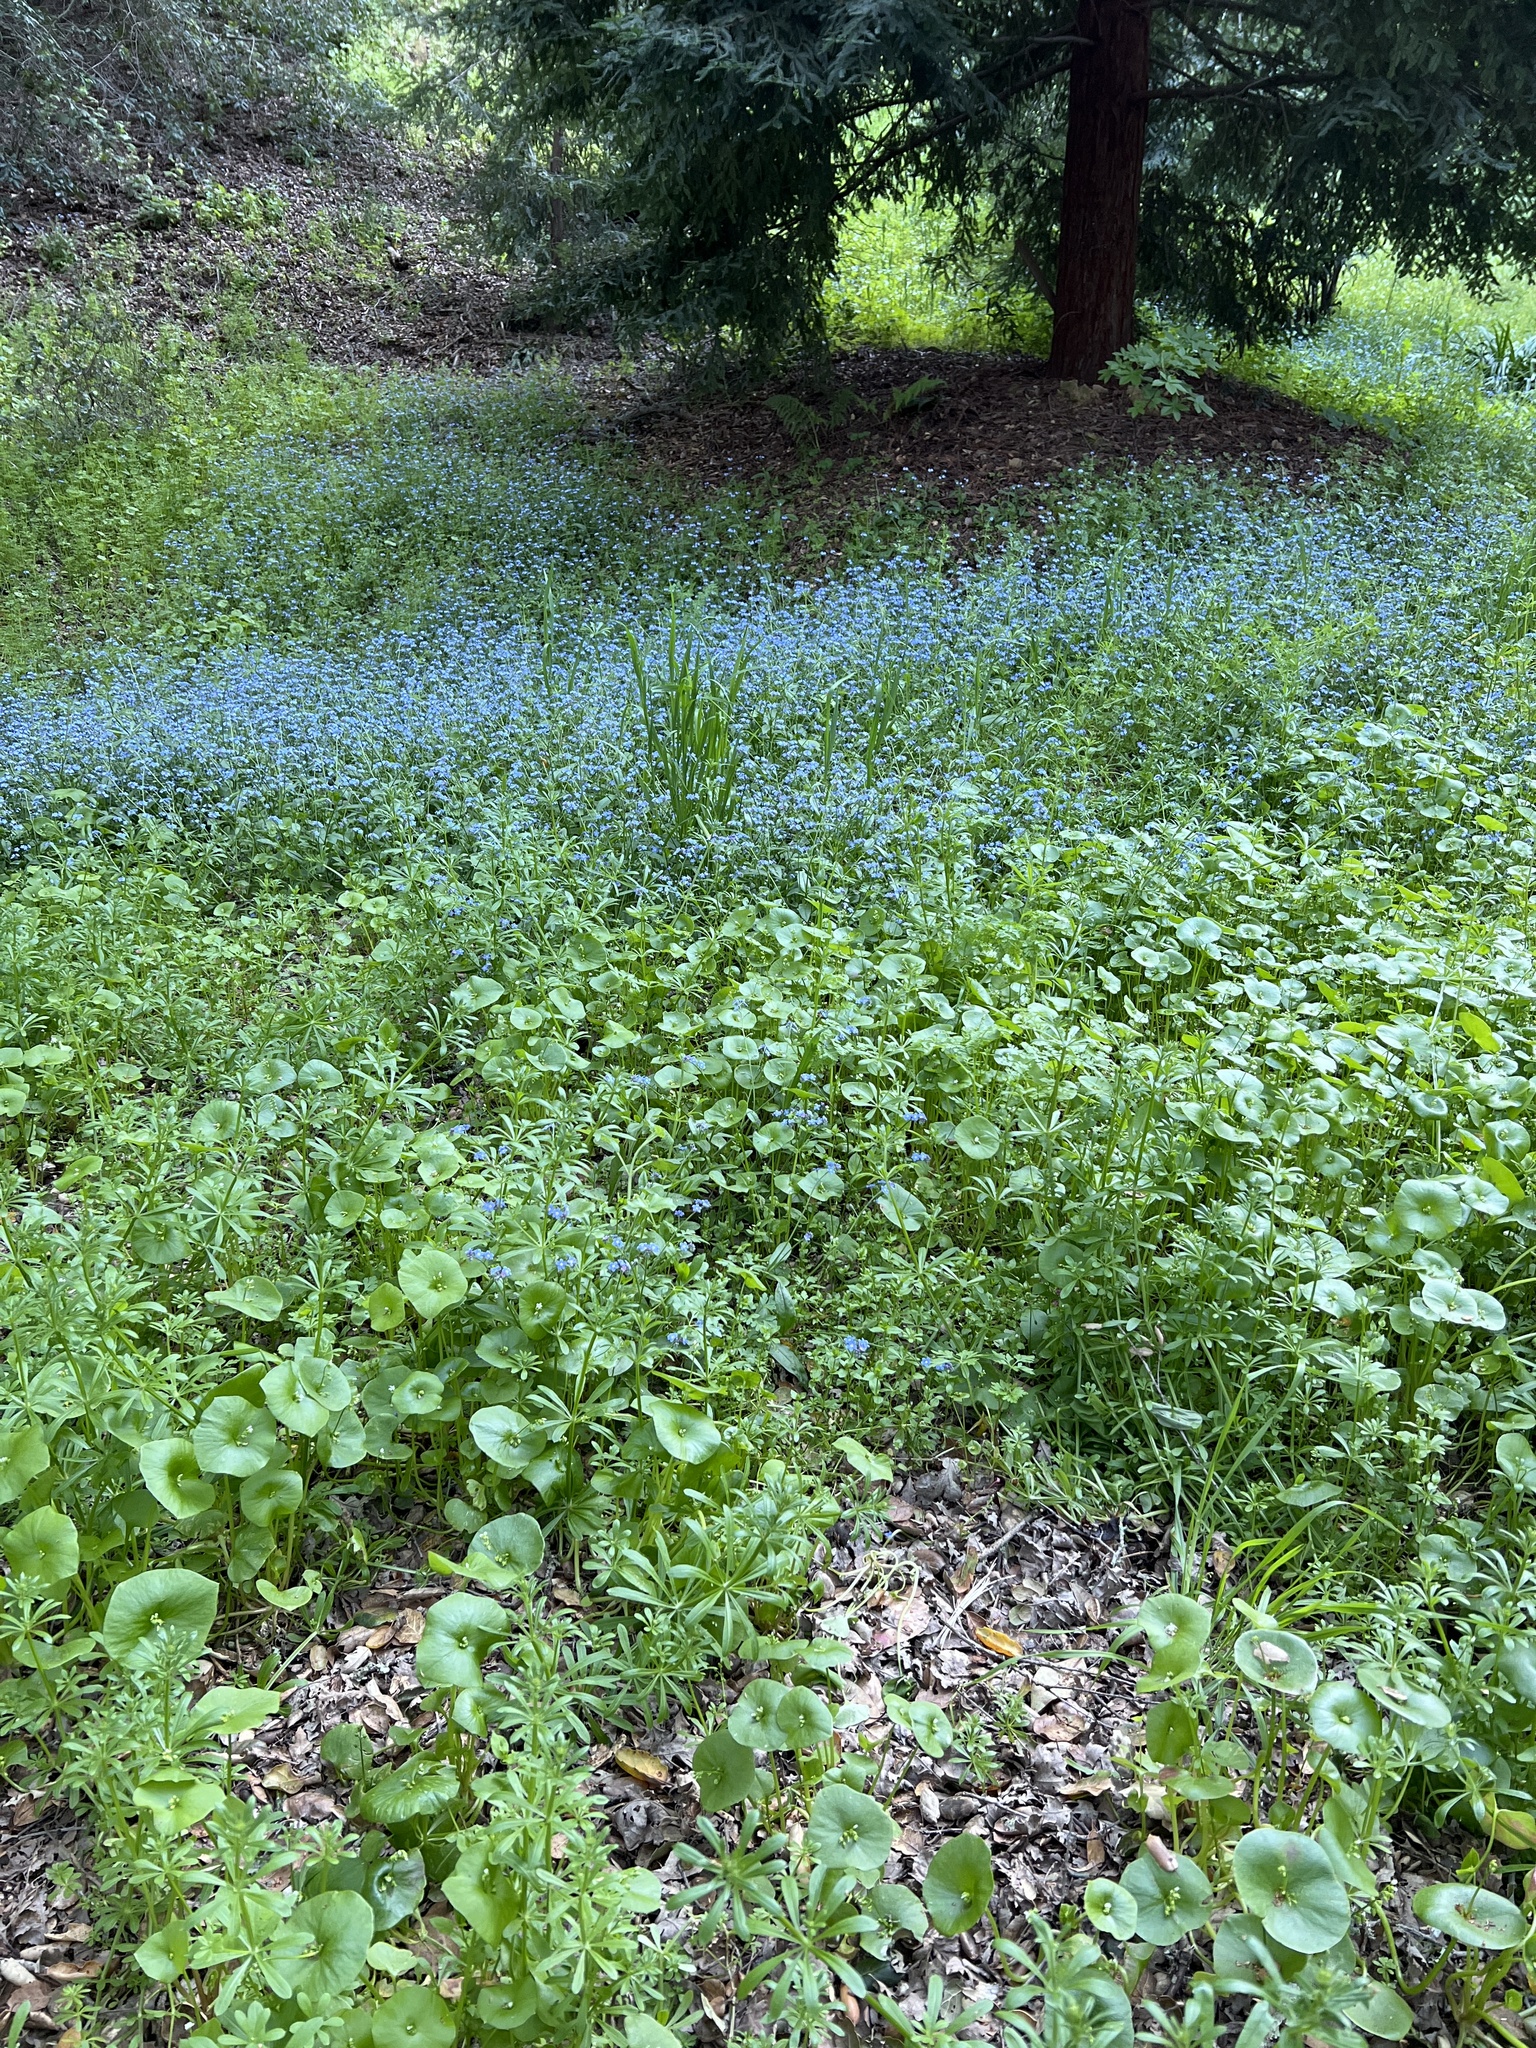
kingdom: Plantae
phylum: Tracheophyta
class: Magnoliopsida
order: Boraginales
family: Boraginaceae
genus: Myosotis
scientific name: Myosotis latifolia
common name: Broadleaf forget-me-not
